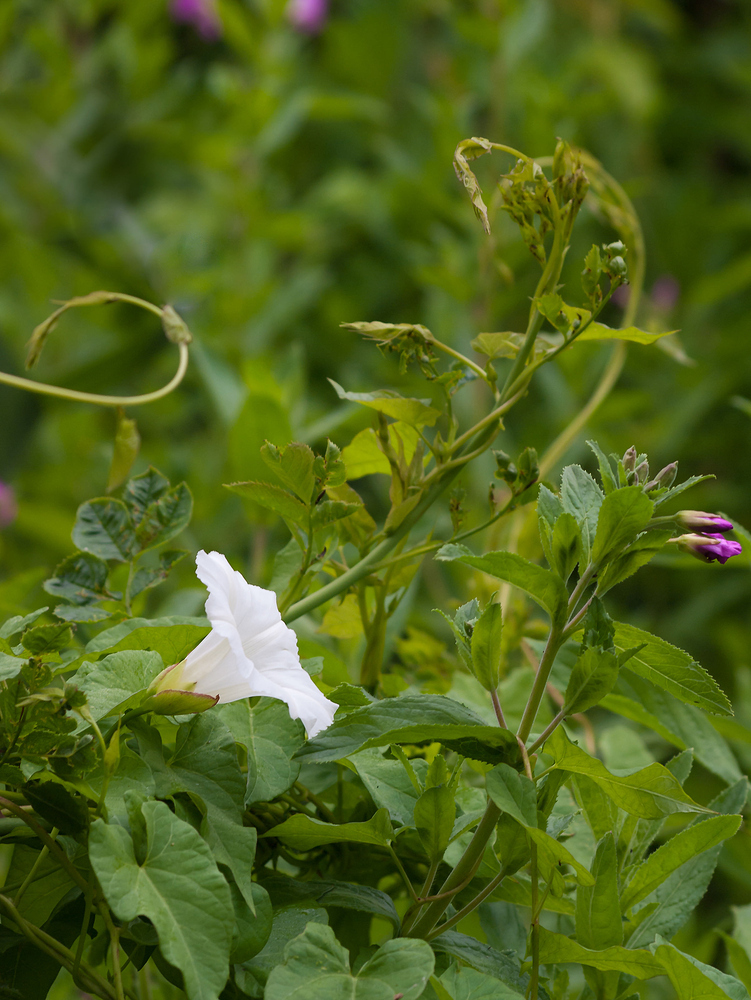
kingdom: Plantae
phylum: Tracheophyta
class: Magnoliopsida
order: Solanales
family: Convolvulaceae
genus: Calystegia
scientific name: Calystegia sepium
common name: Hedge bindweed
